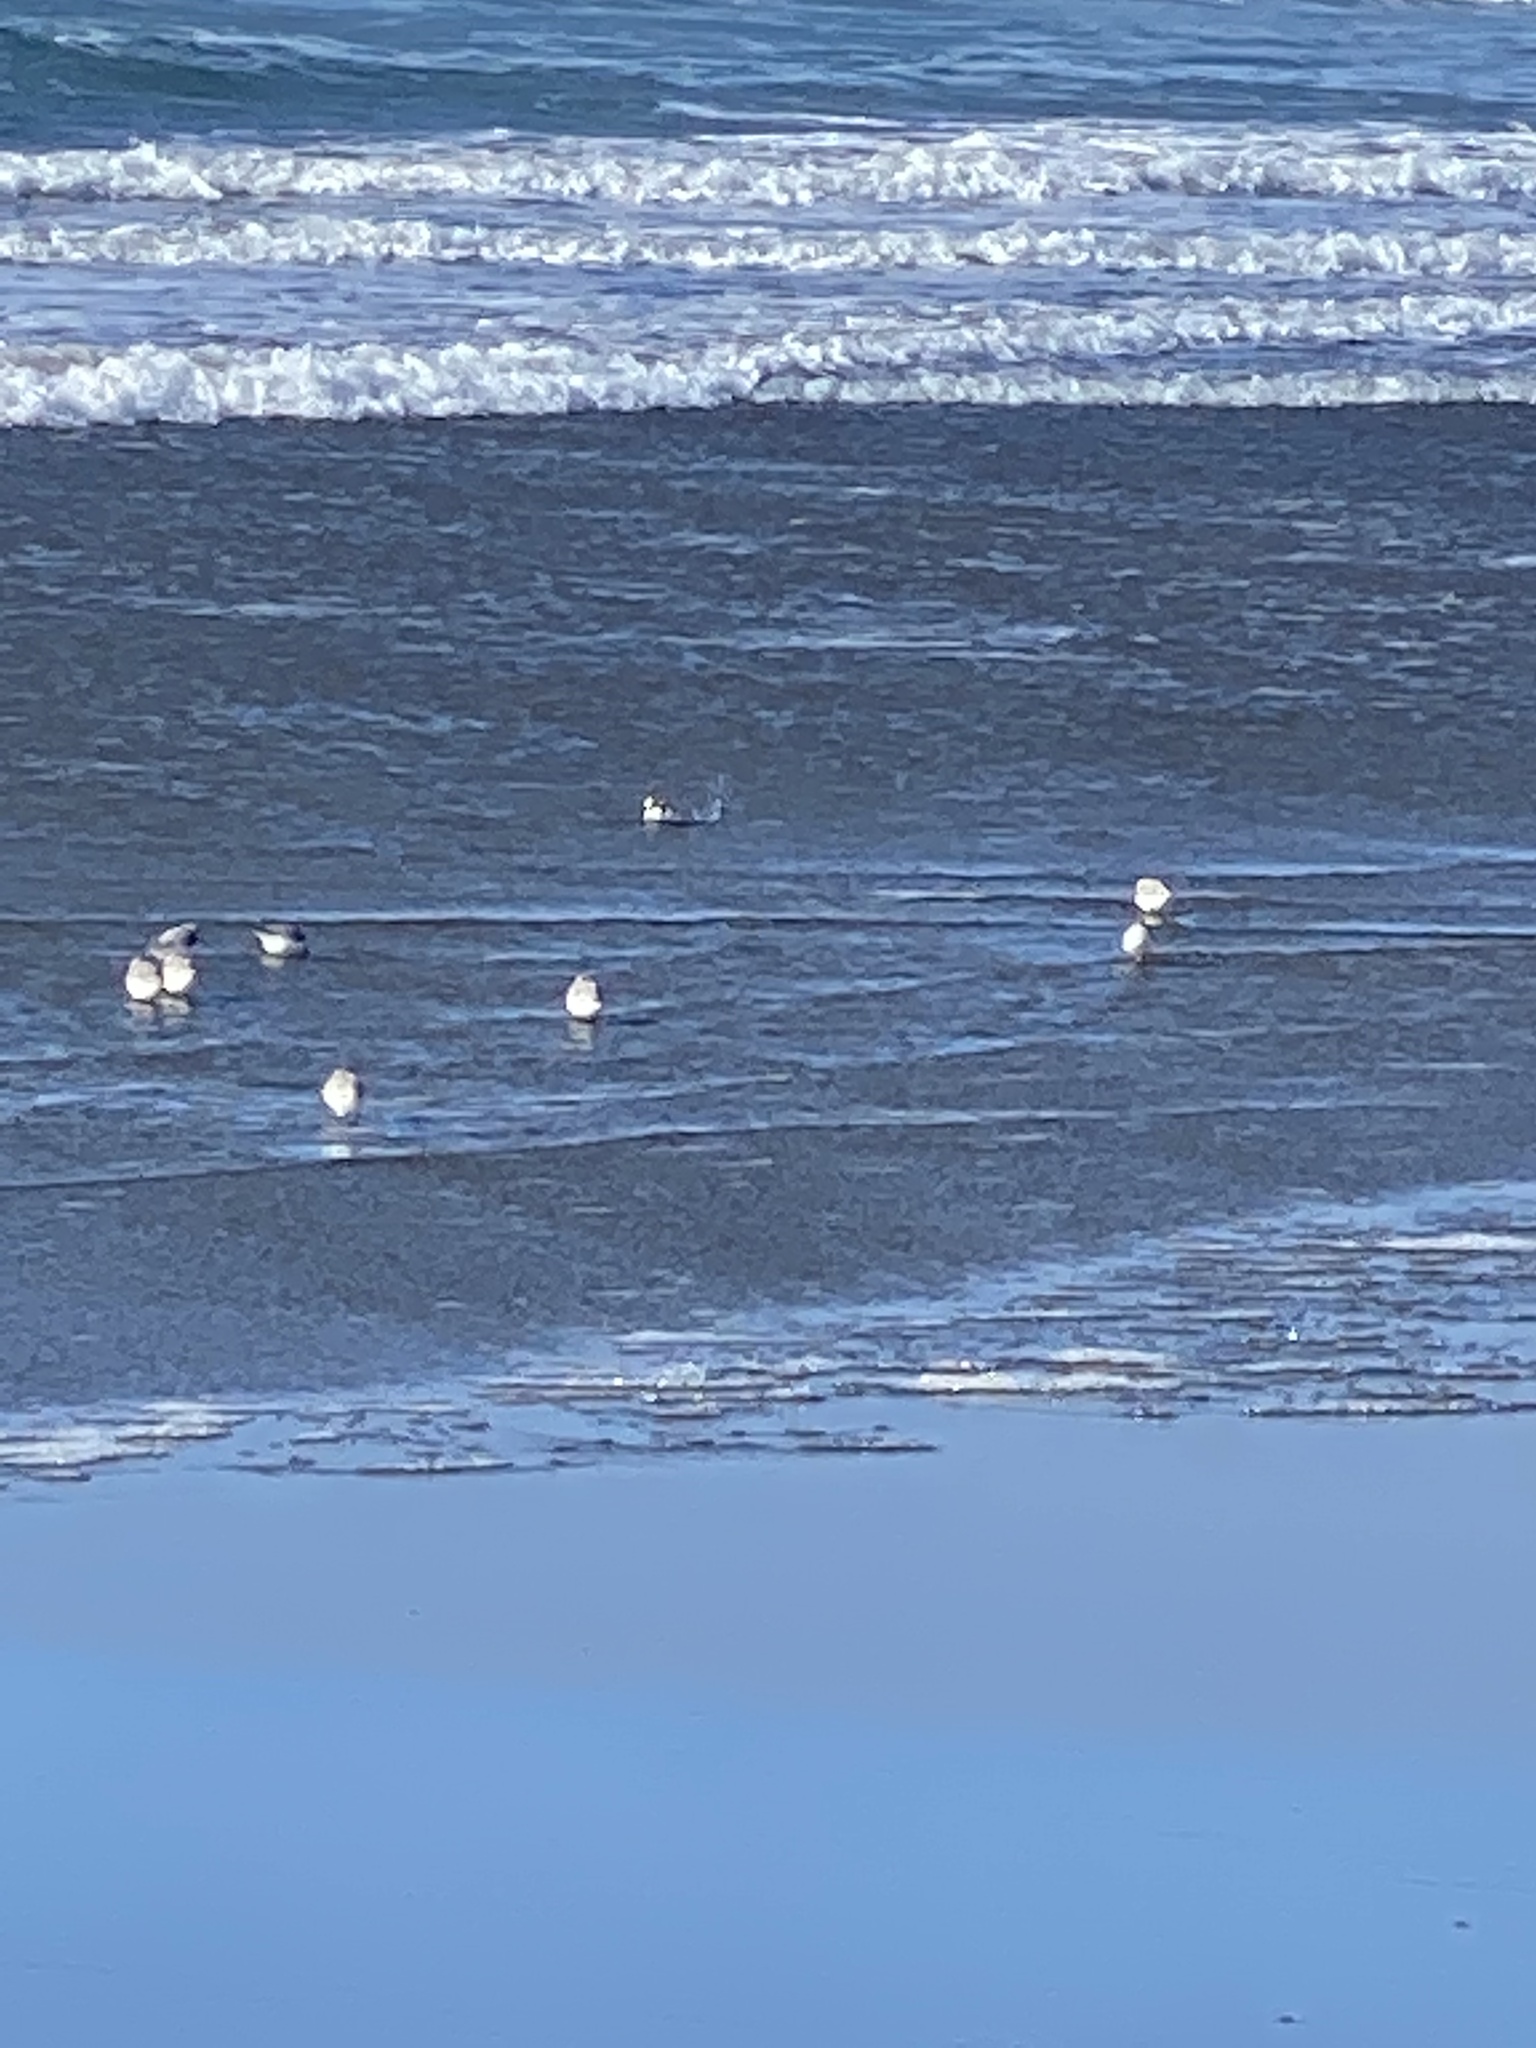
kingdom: Animalia
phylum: Chordata
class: Aves
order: Charadriiformes
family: Scolopacidae
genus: Calidris
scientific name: Calidris alba
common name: Sanderling
